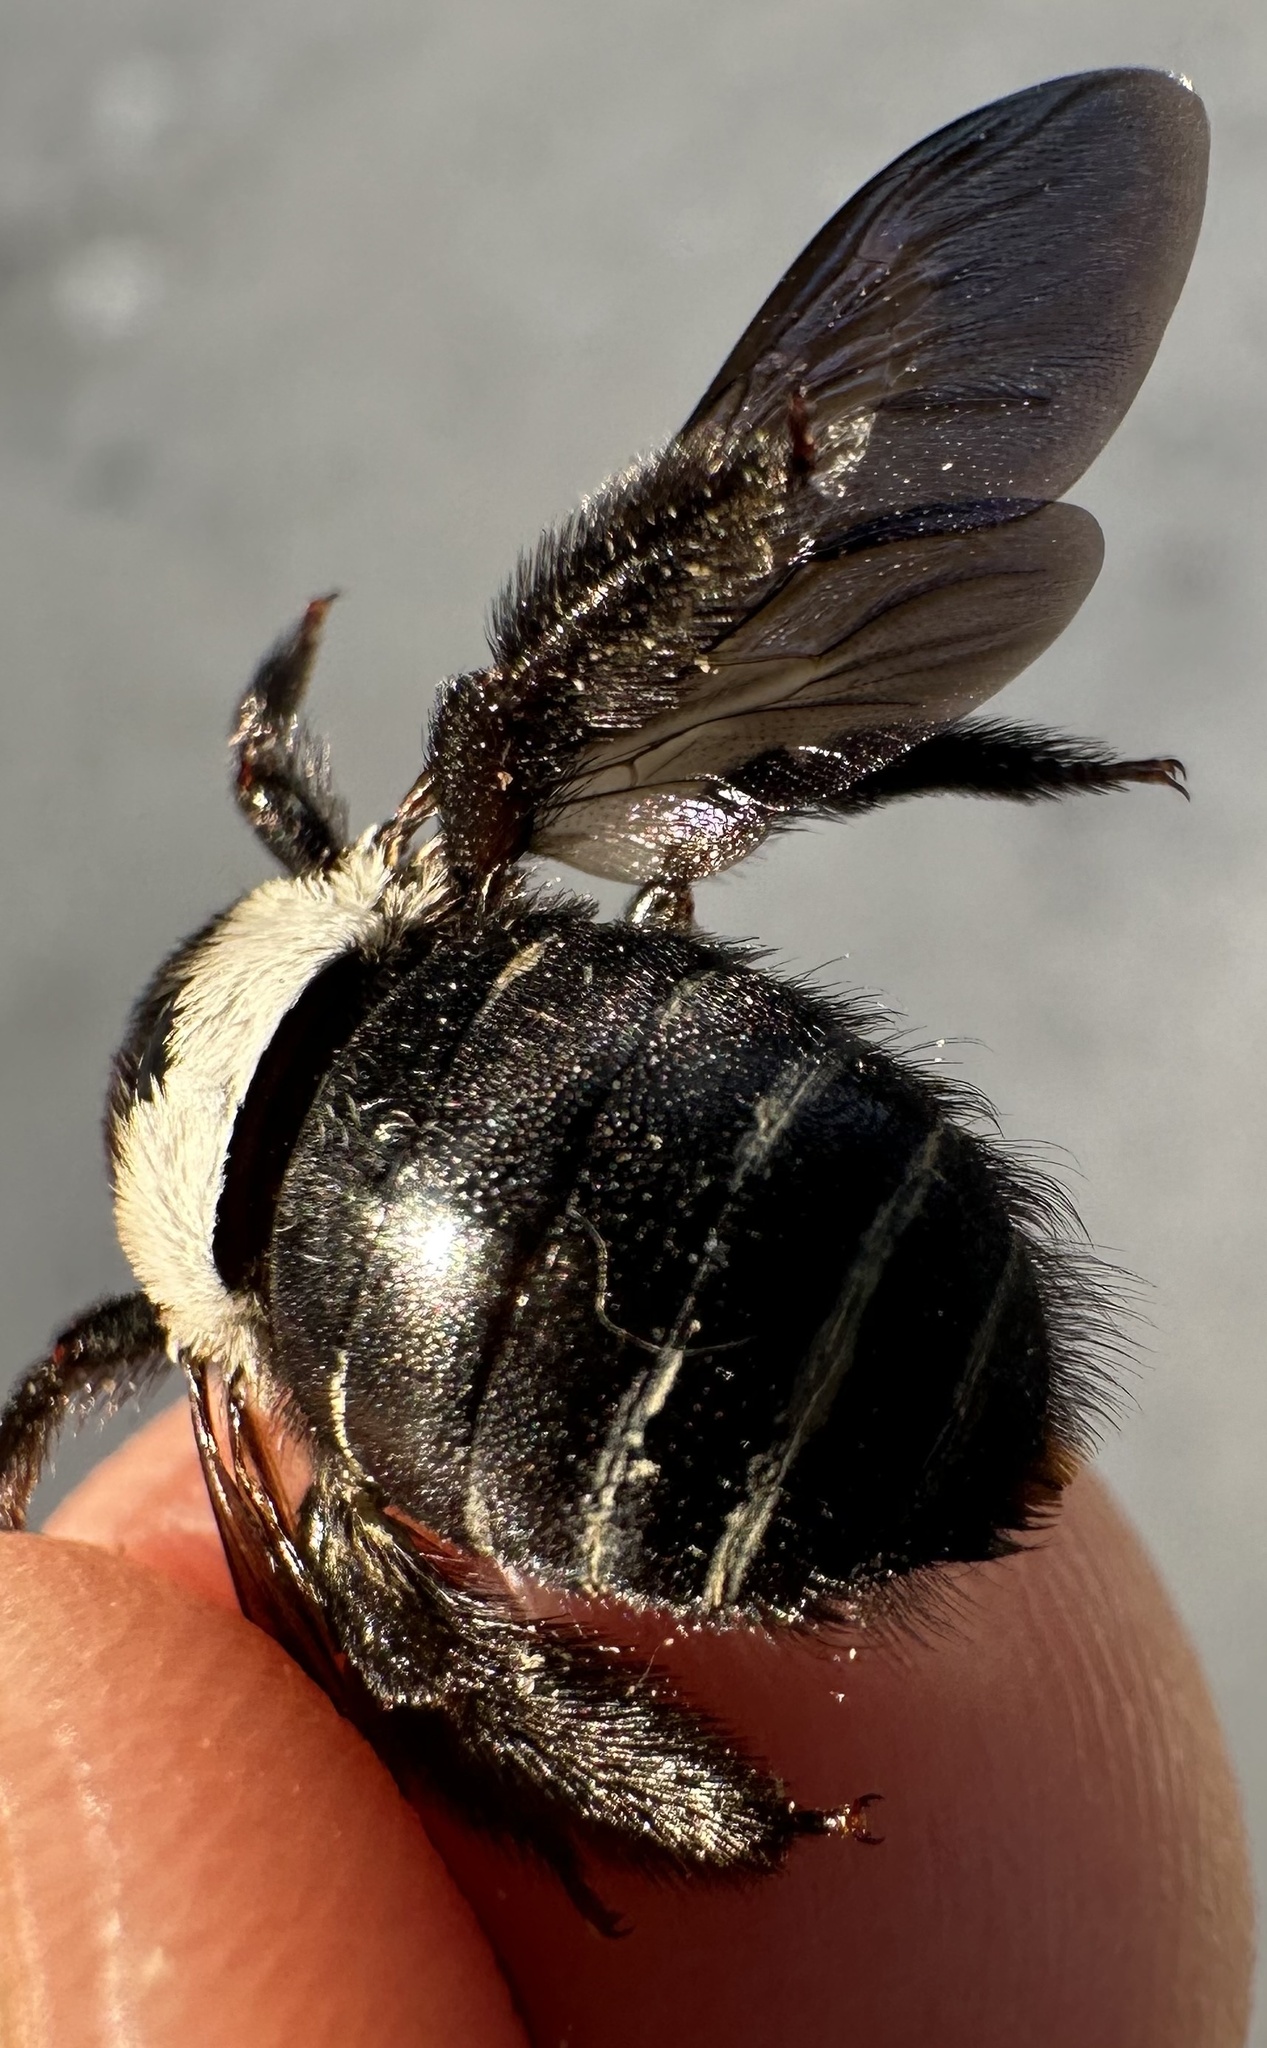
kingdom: Animalia
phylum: Arthropoda
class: Insecta
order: Hymenoptera
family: Apidae
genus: Xylocopa
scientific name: Xylocopa flavicollis
